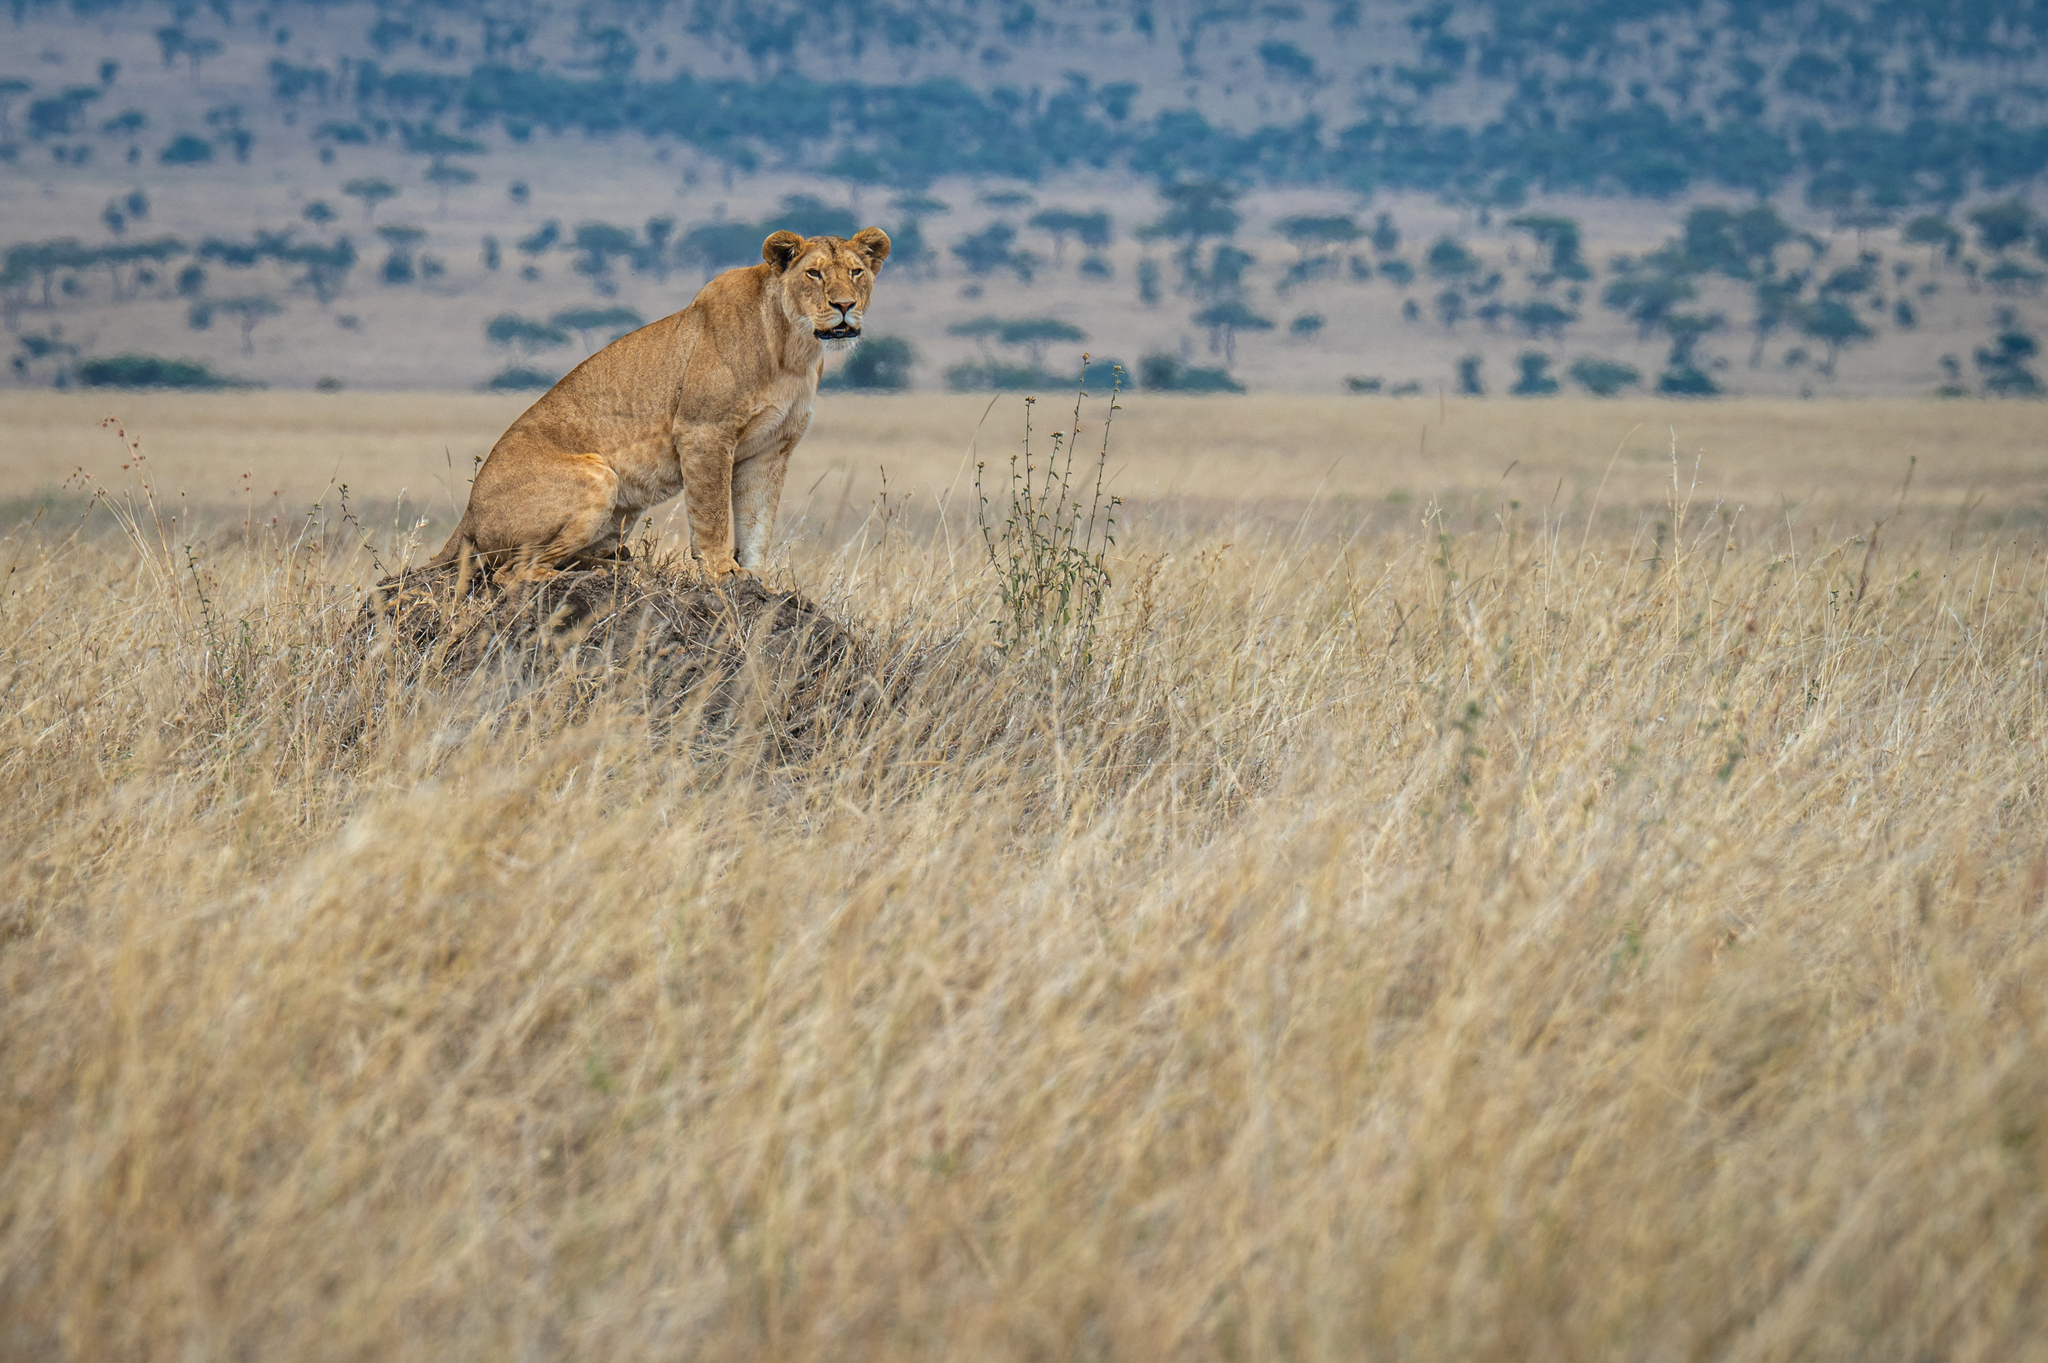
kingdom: Animalia
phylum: Chordata
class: Mammalia
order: Carnivora
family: Felidae
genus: Panthera
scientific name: Panthera leo
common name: Lion
